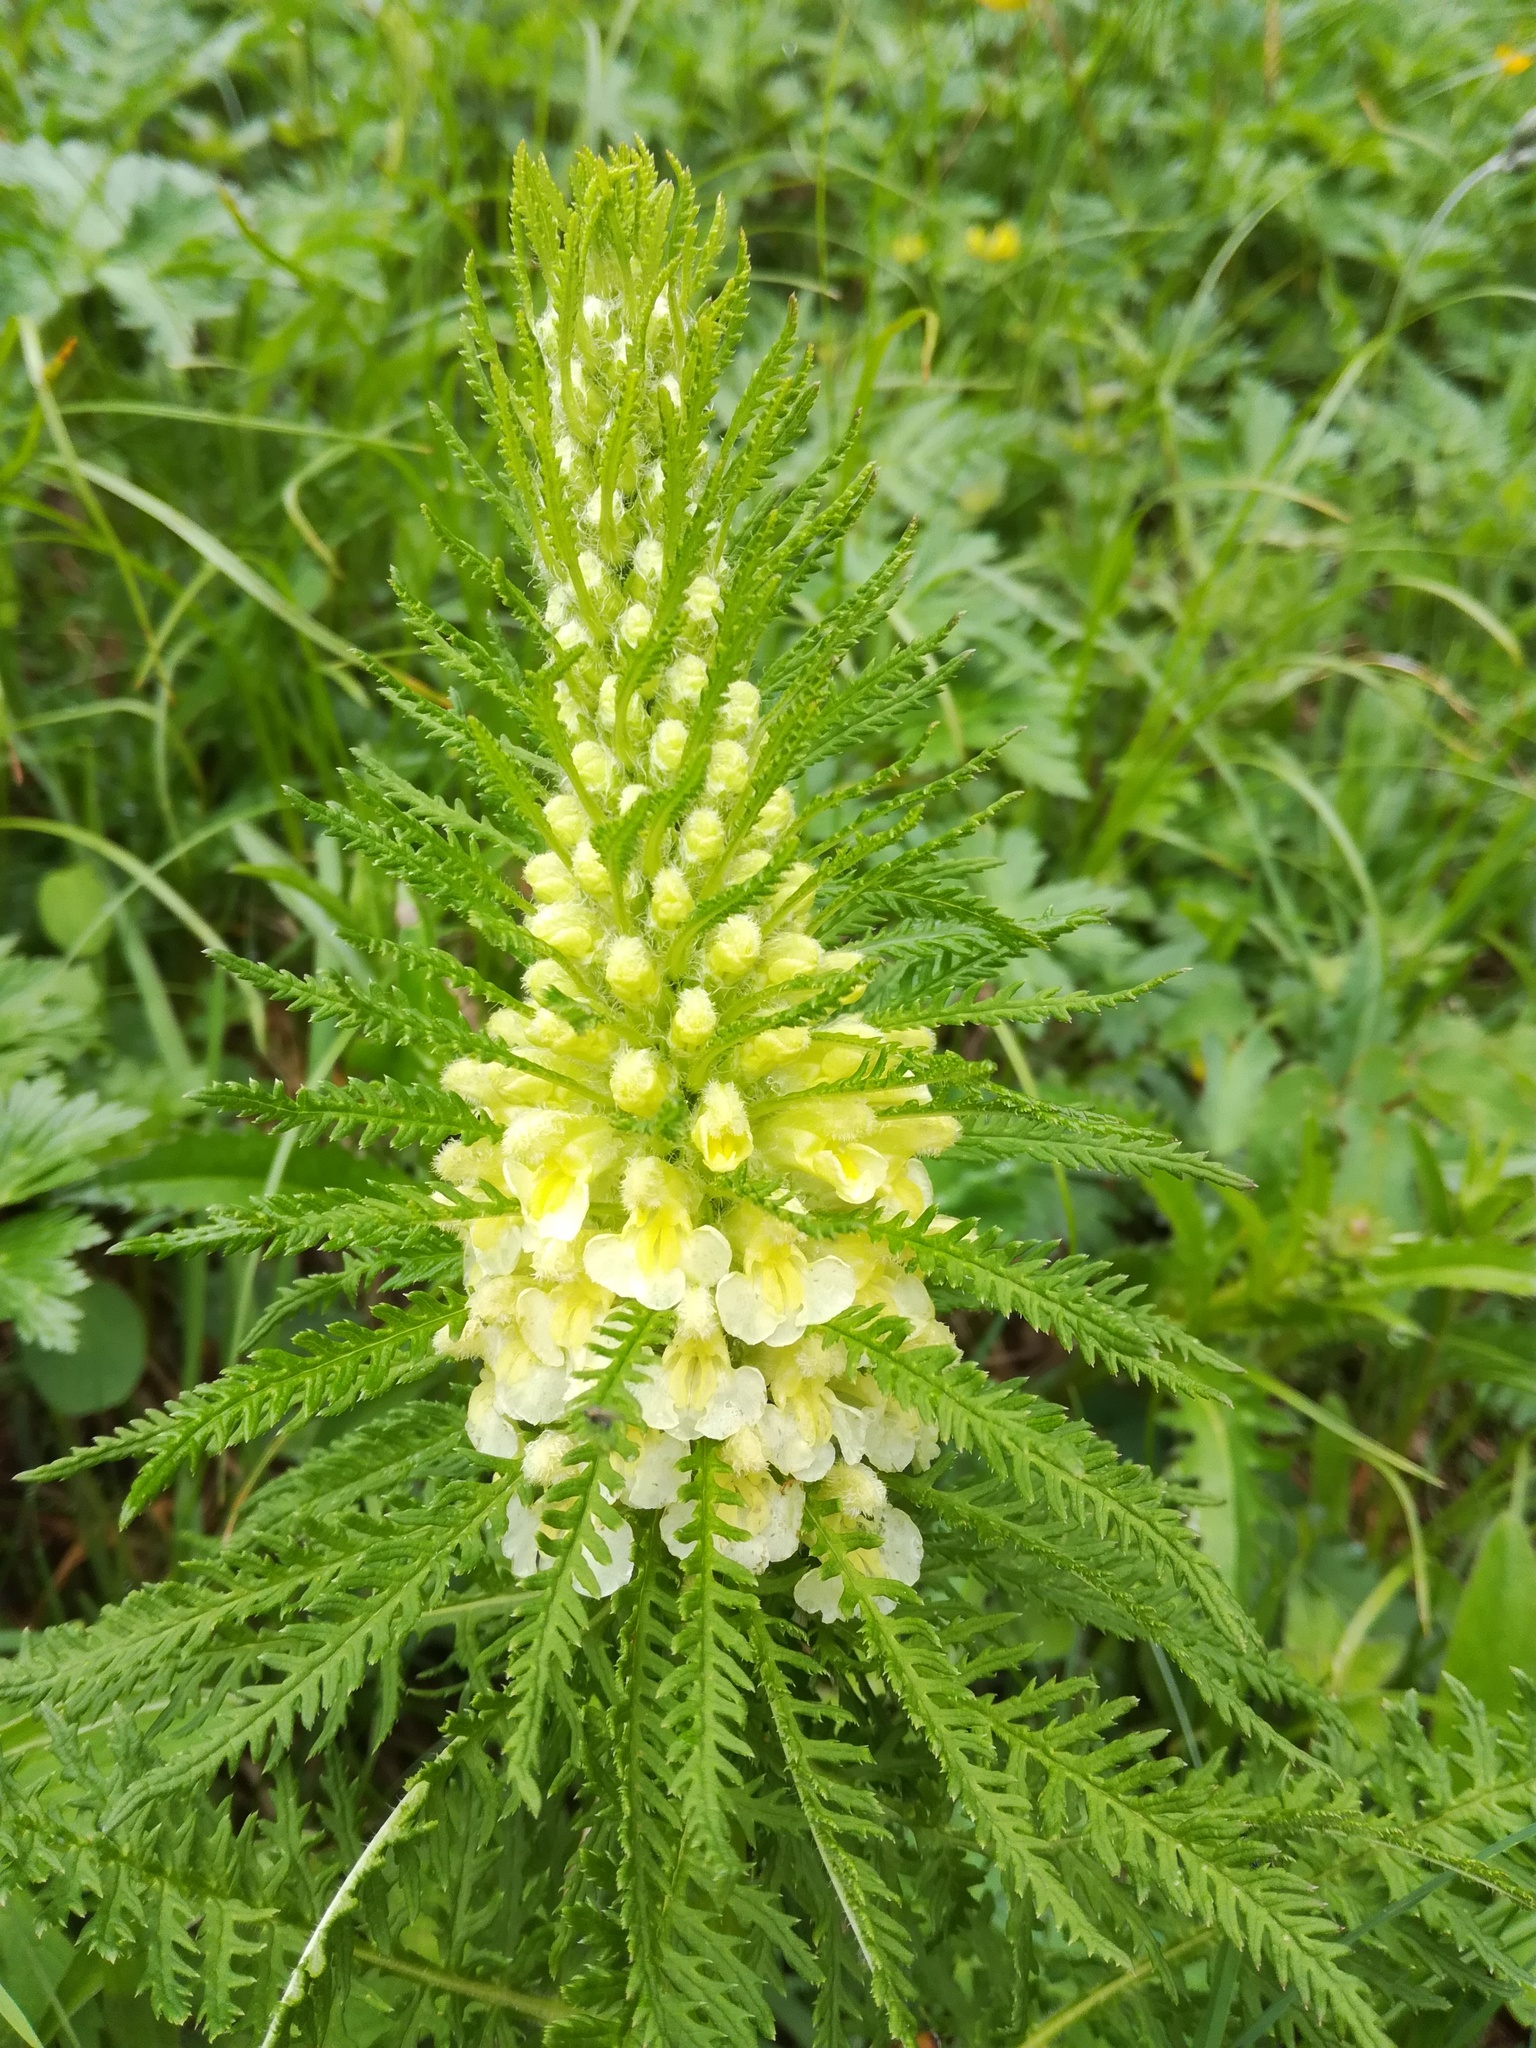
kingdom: Plantae
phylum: Tracheophyta
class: Magnoliopsida
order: Lamiales
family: Orobanchaceae
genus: Pedicularis
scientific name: Pedicularis foliosa
